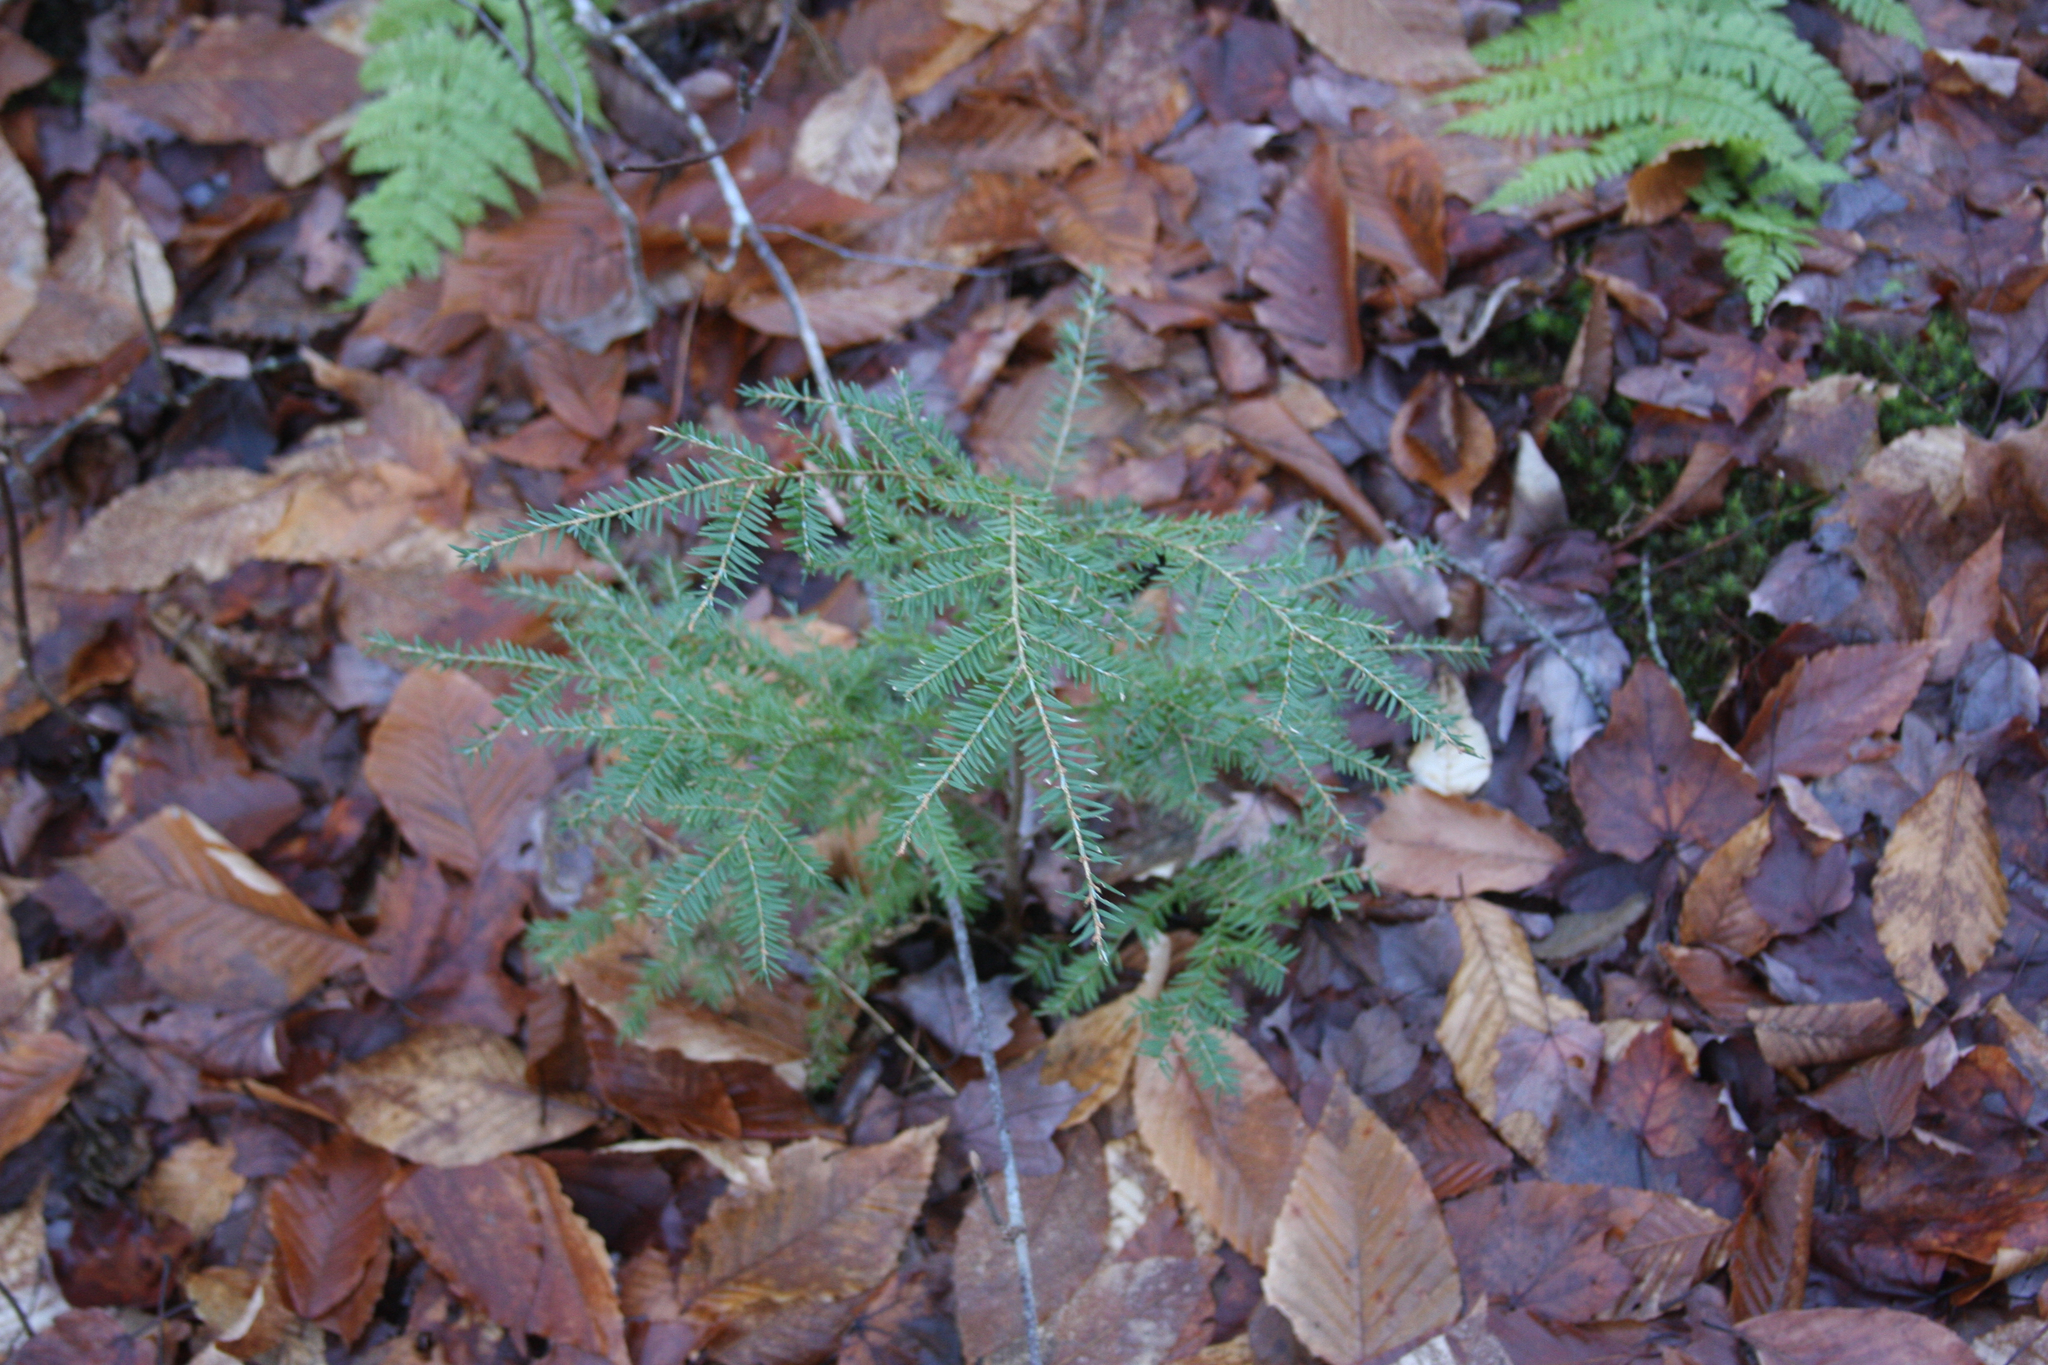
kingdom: Plantae
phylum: Tracheophyta
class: Pinopsida
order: Pinales
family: Pinaceae
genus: Tsuga
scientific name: Tsuga canadensis
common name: Eastern hemlock
